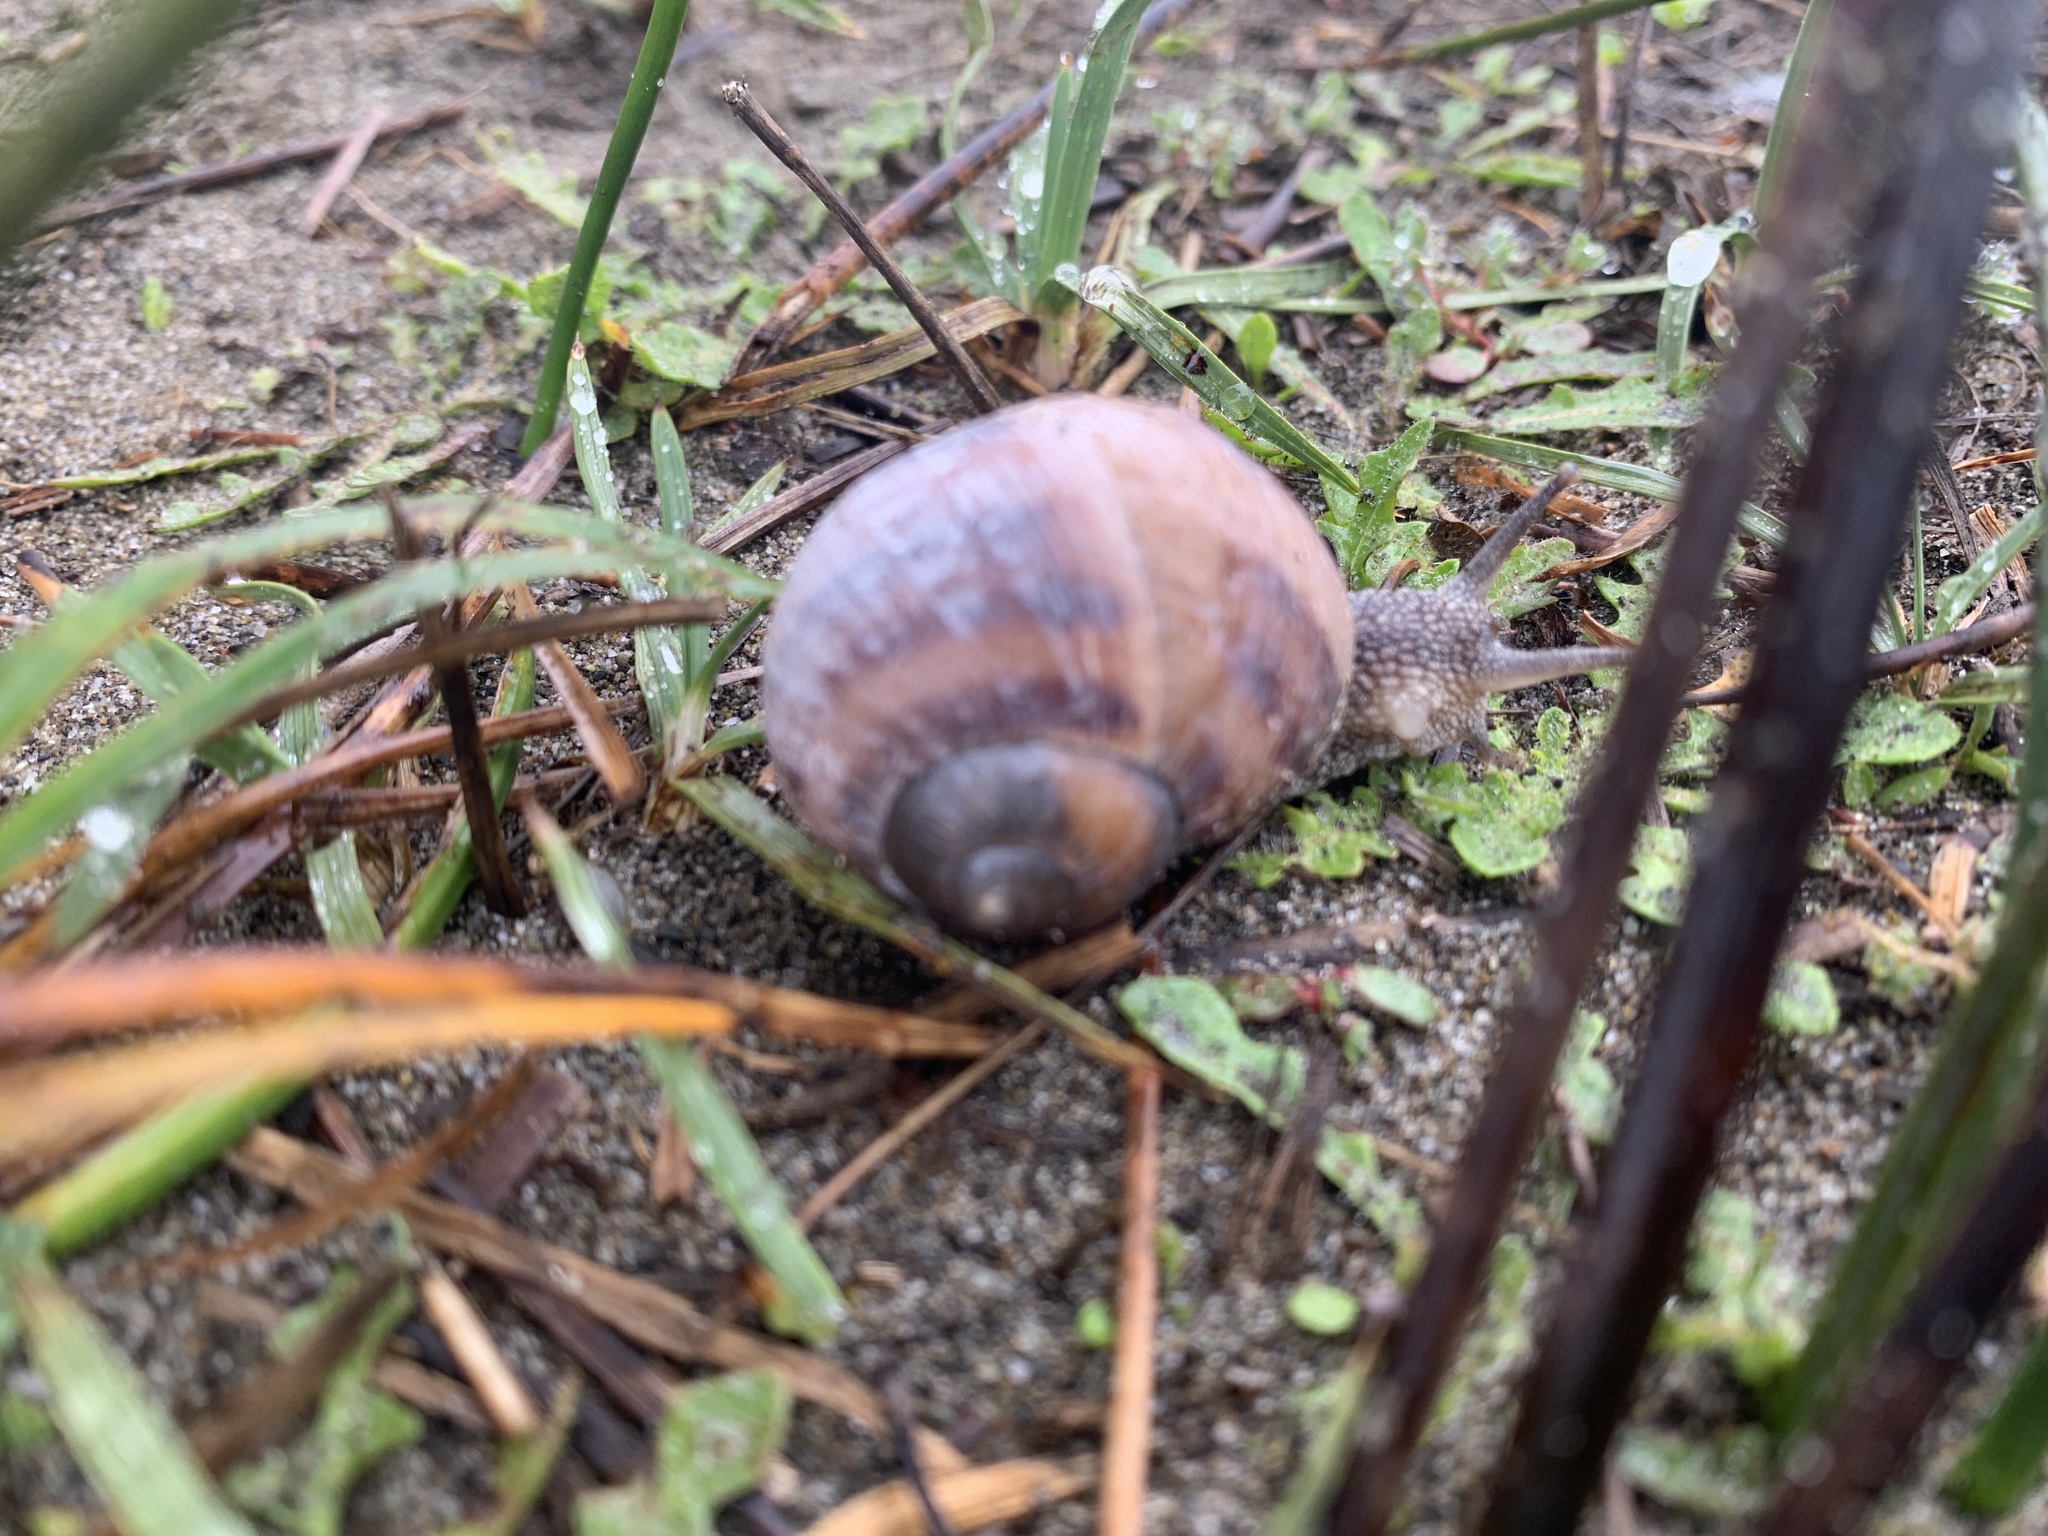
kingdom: Animalia
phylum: Mollusca
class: Gastropoda
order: Stylommatophora
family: Helicidae
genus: Cornu
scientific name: Cornu aspersum
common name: Brown garden snail
